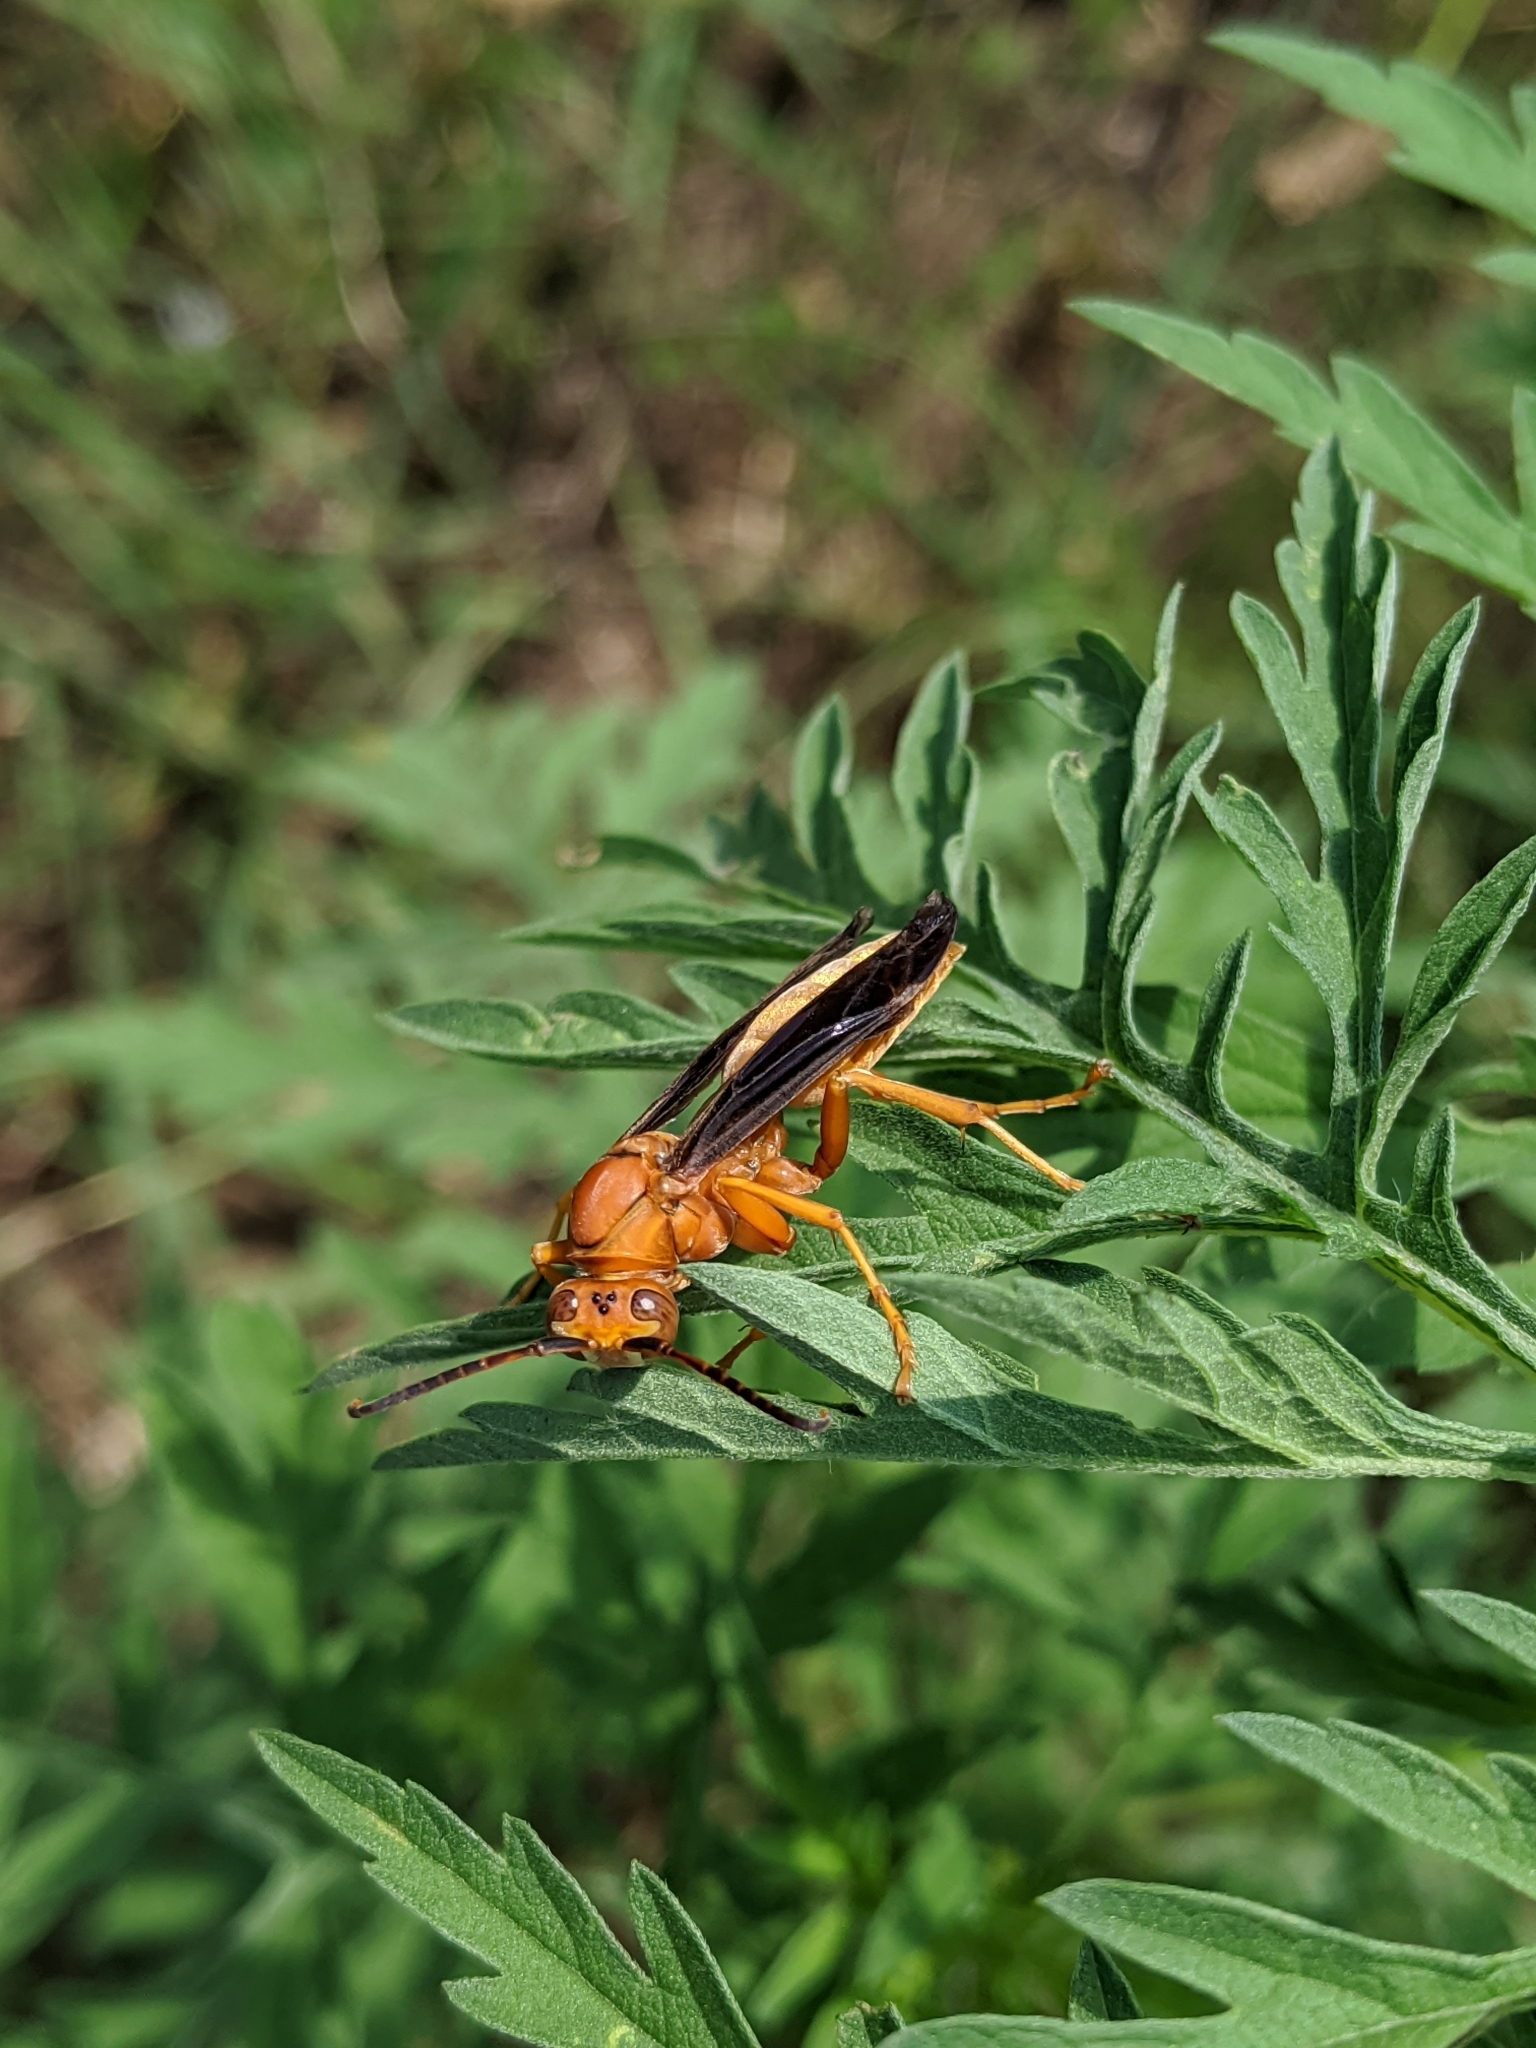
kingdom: Animalia
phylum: Arthropoda
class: Insecta
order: Hymenoptera
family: Vespidae
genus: Fuscopolistes
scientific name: Fuscopolistes
